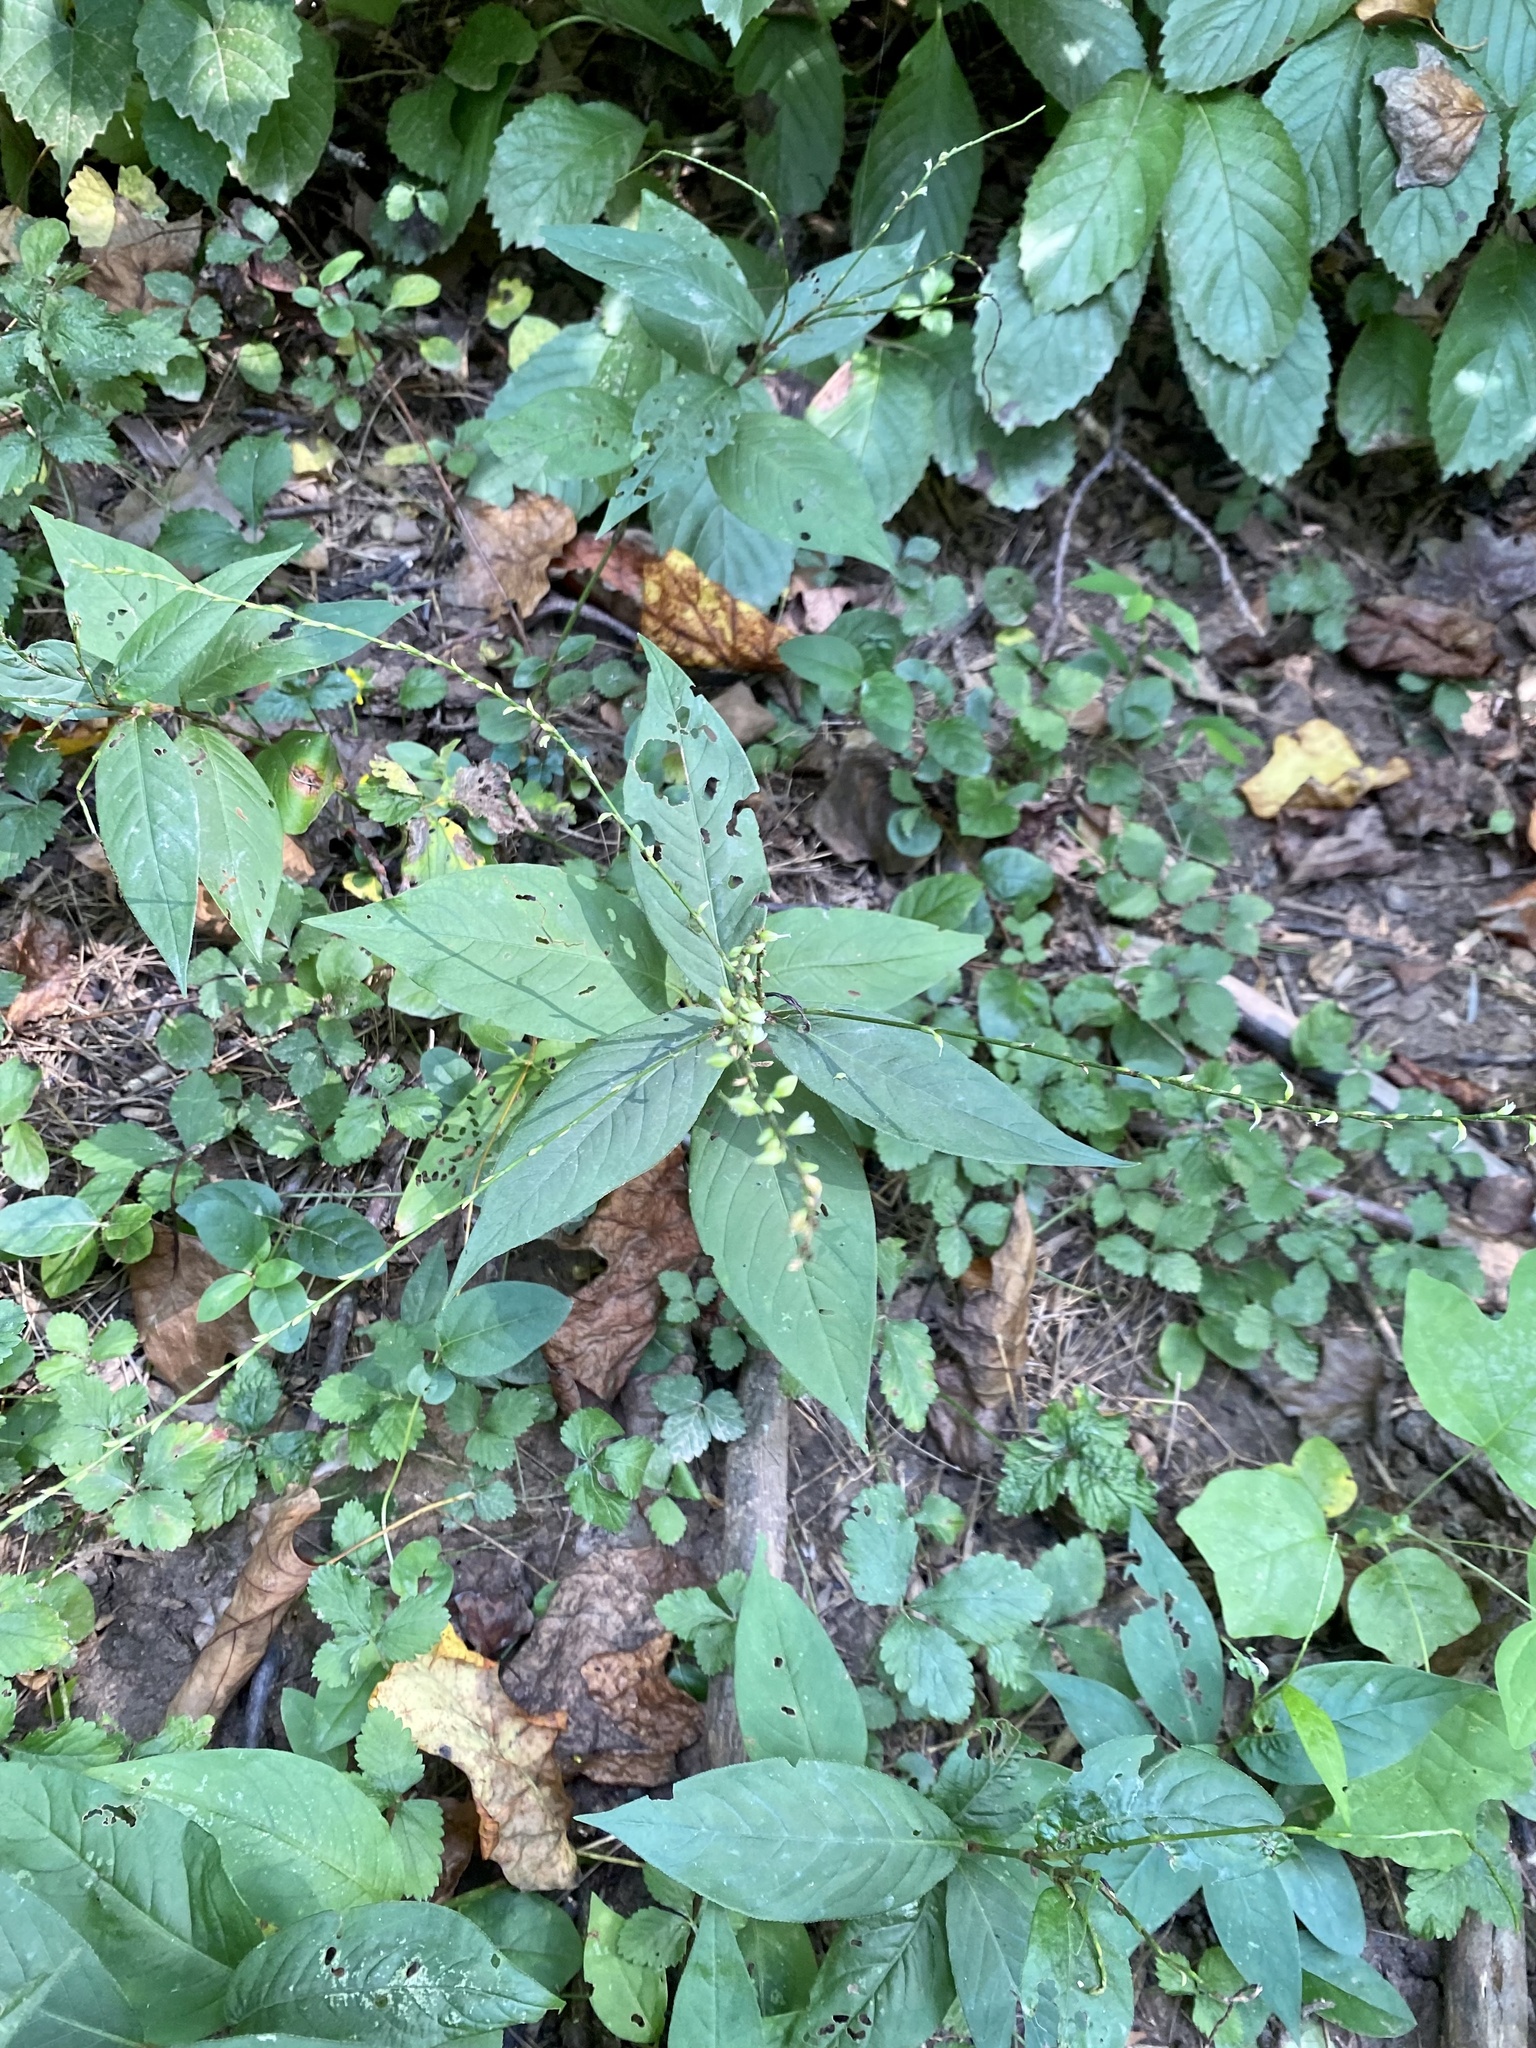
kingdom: Plantae
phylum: Tracheophyta
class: Magnoliopsida
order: Caryophyllales
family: Polygonaceae
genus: Persicaria
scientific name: Persicaria virginiana
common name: Jumpseed
